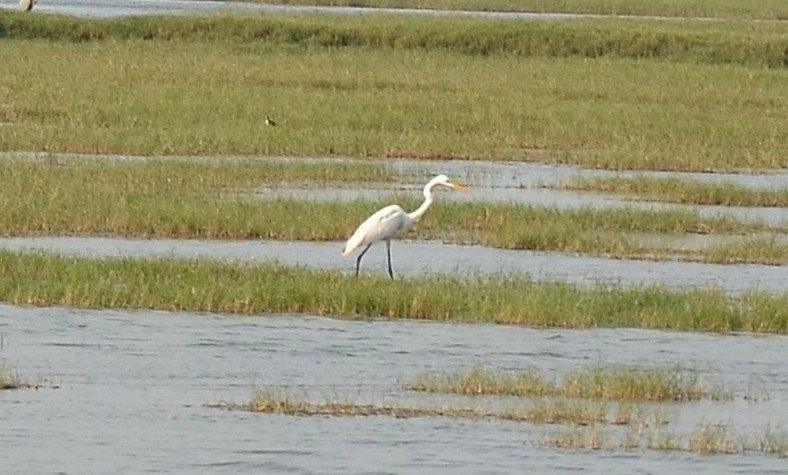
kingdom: Animalia
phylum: Chordata
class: Aves
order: Pelecaniformes
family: Ardeidae
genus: Ardea
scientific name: Ardea alba
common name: Great egret
